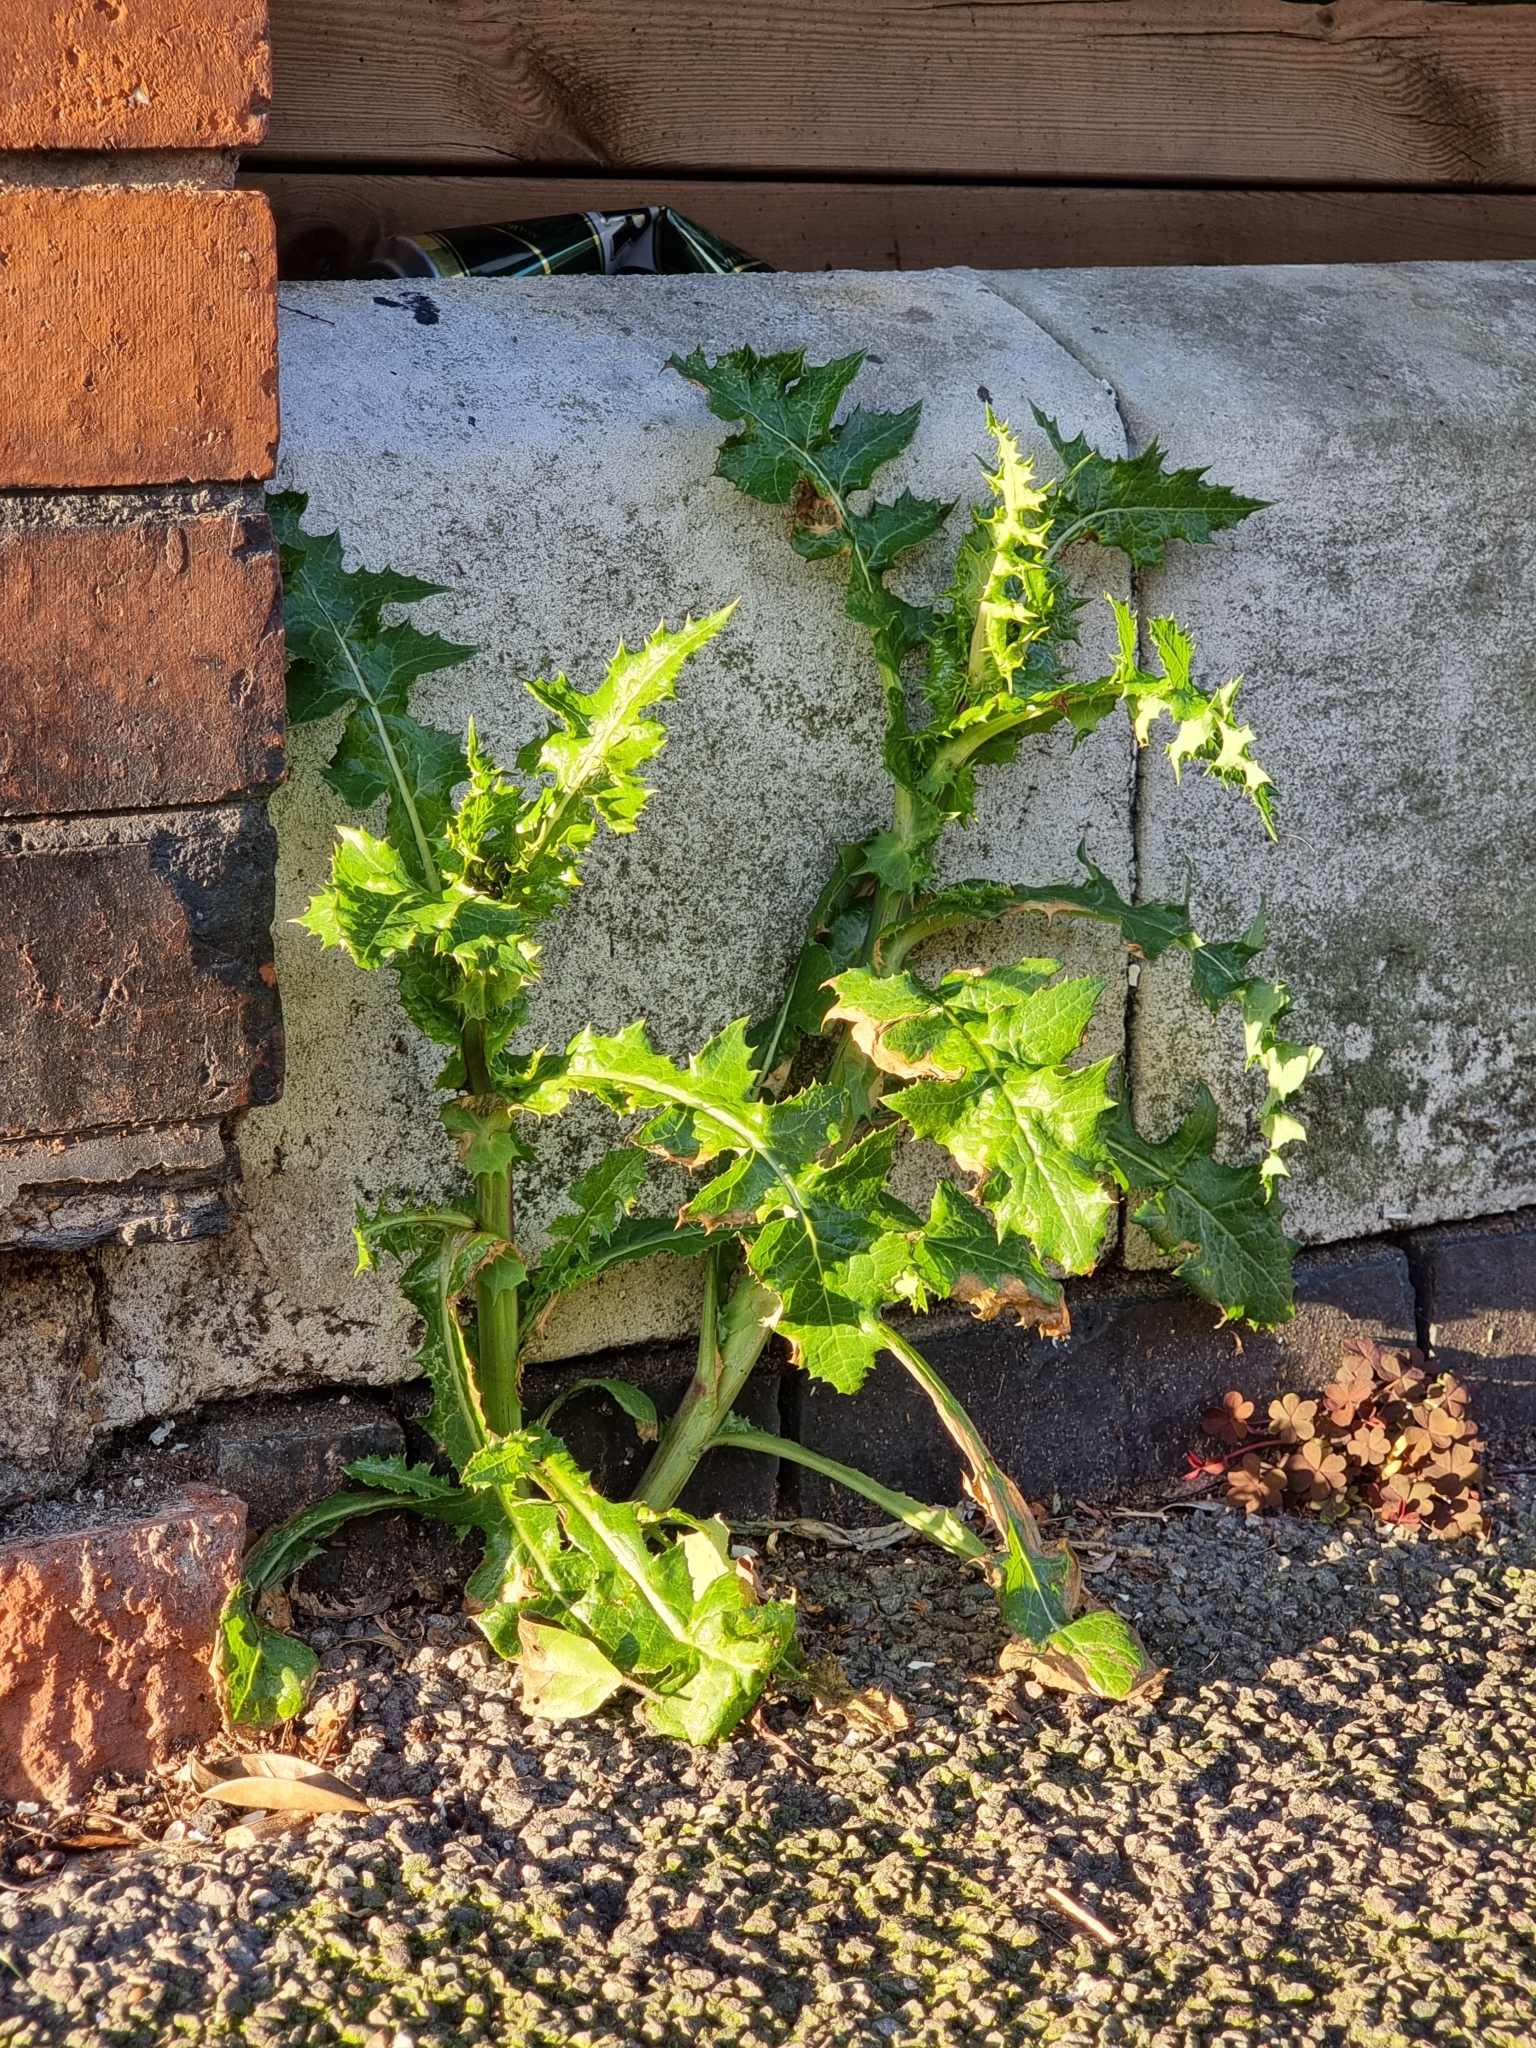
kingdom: Plantae
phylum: Tracheophyta
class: Magnoliopsida
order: Asterales
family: Asteraceae
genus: Sonchus
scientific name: Sonchus asper
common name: Prickly sow-thistle
